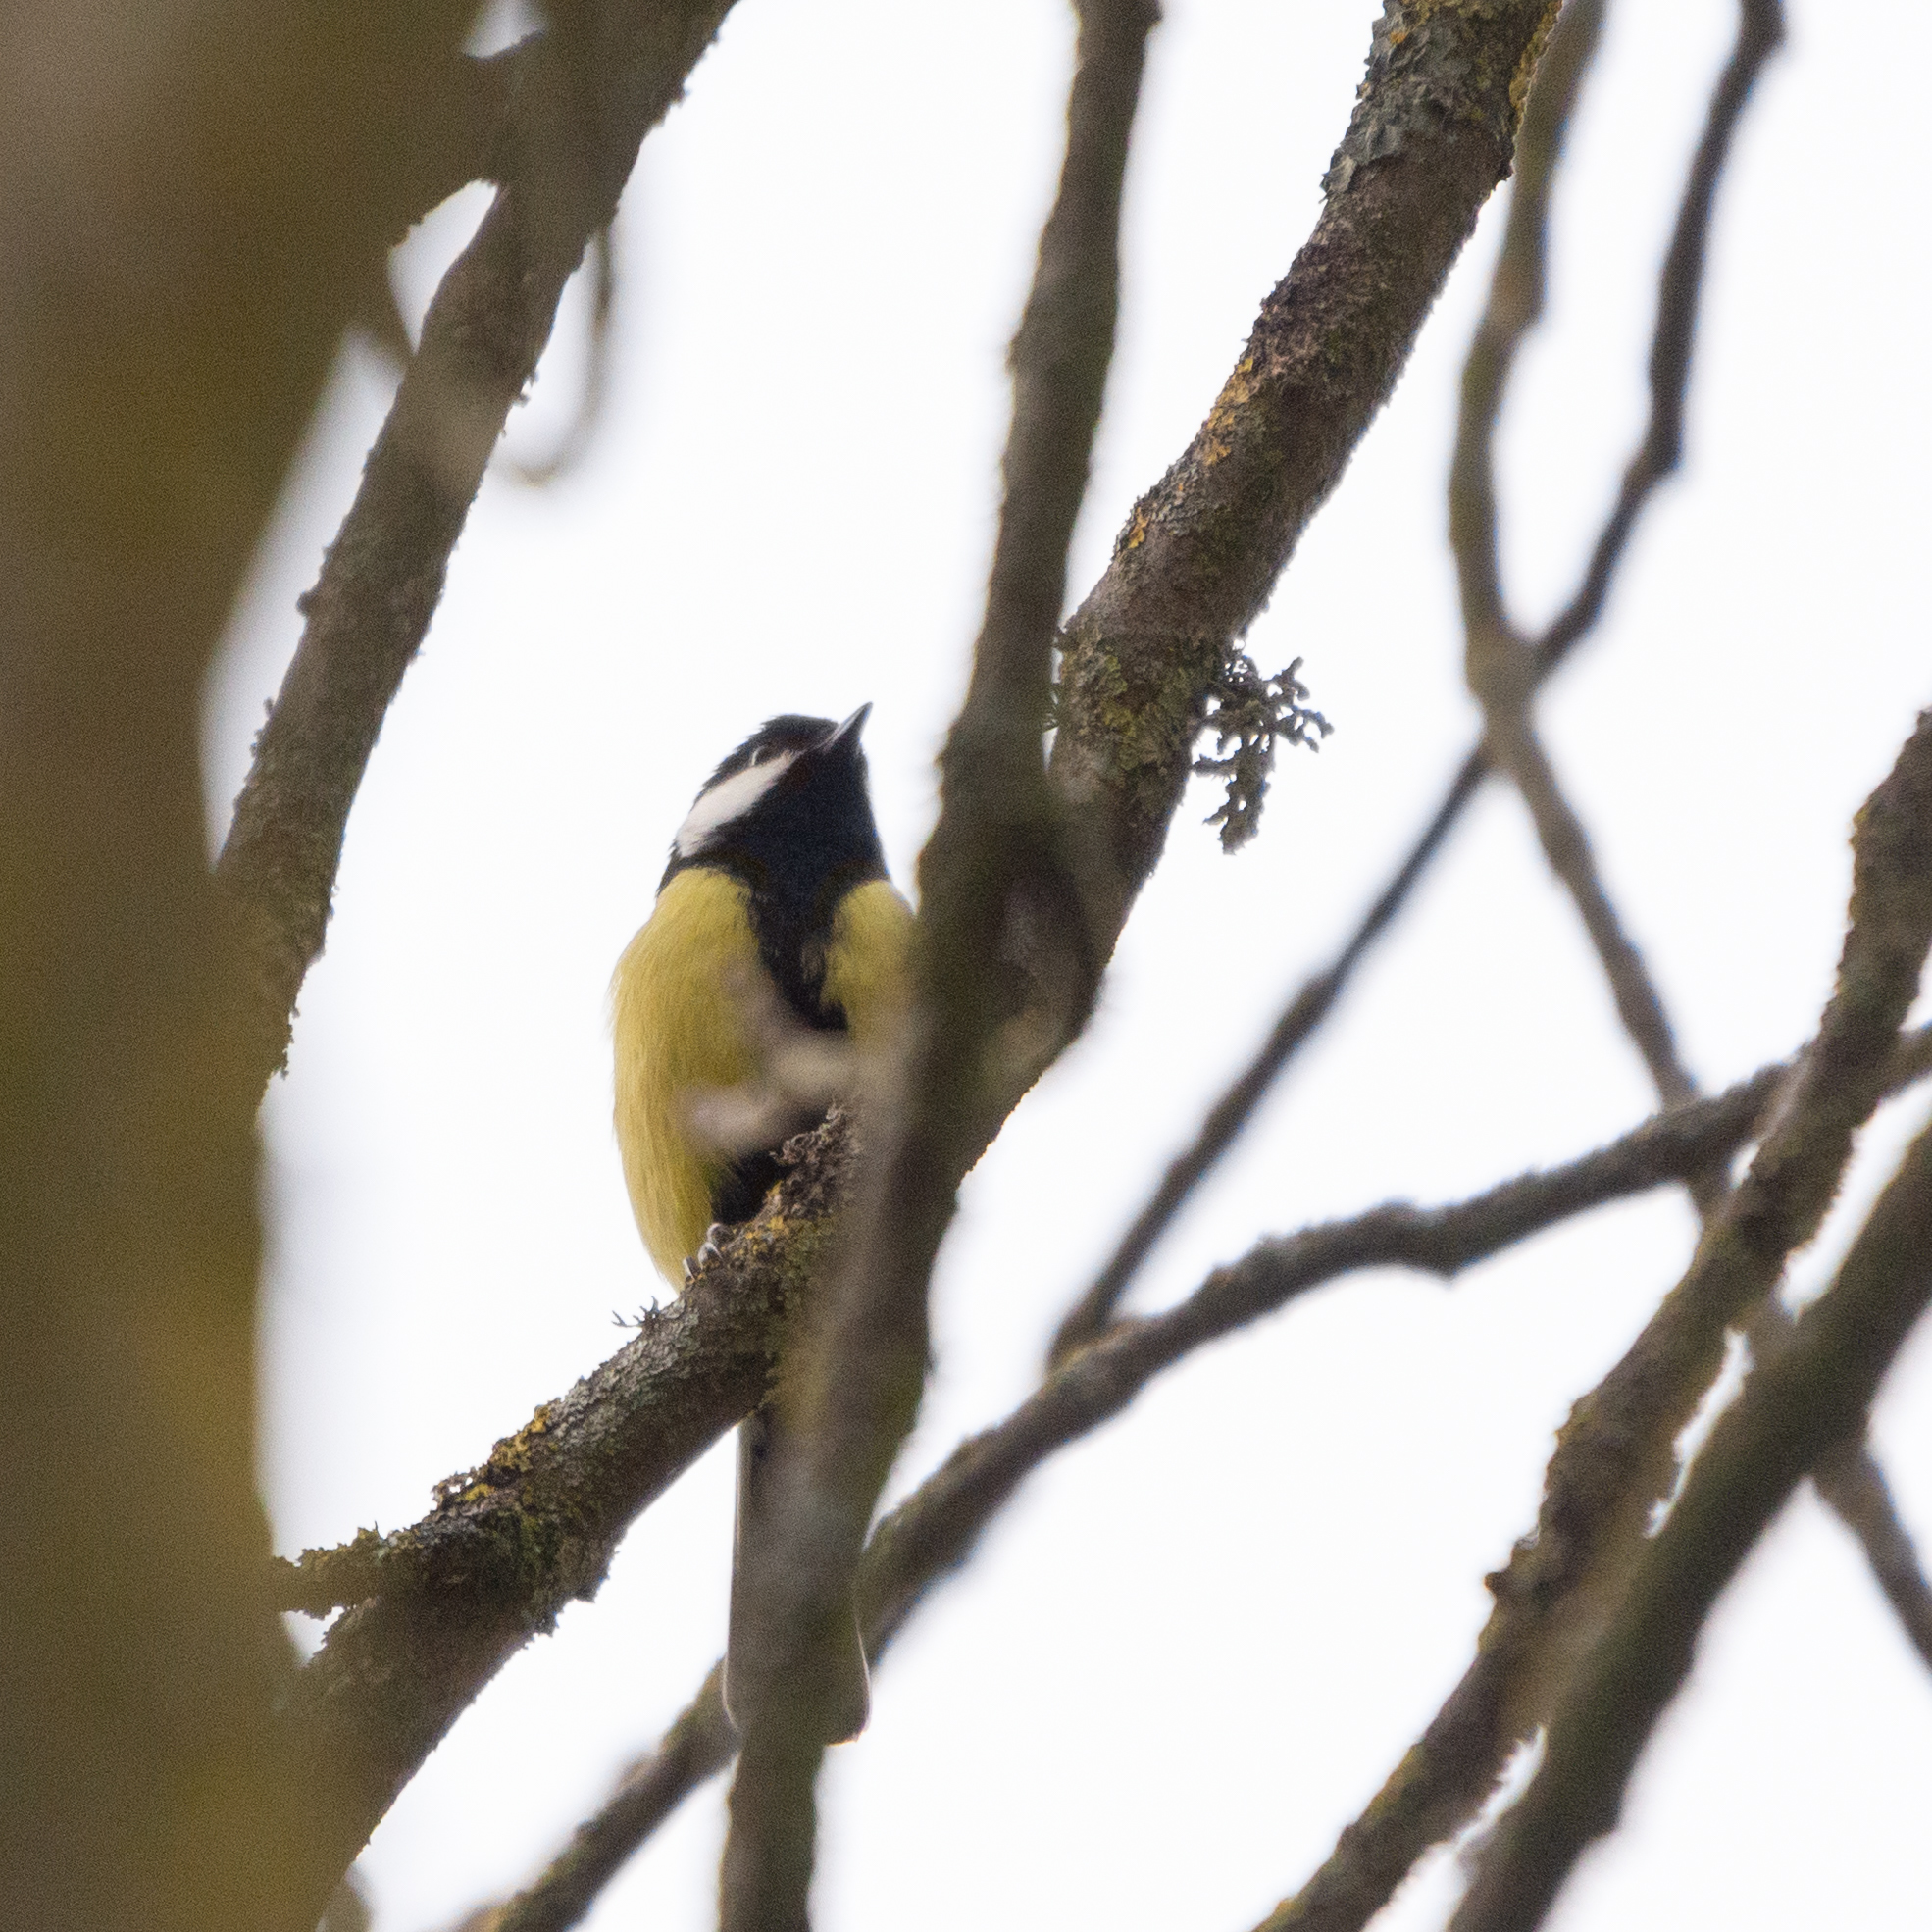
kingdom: Animalia
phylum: Chordata
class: Aves
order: Passeriformes
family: Paridae
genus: Parus
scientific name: Parus major
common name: Great tit
